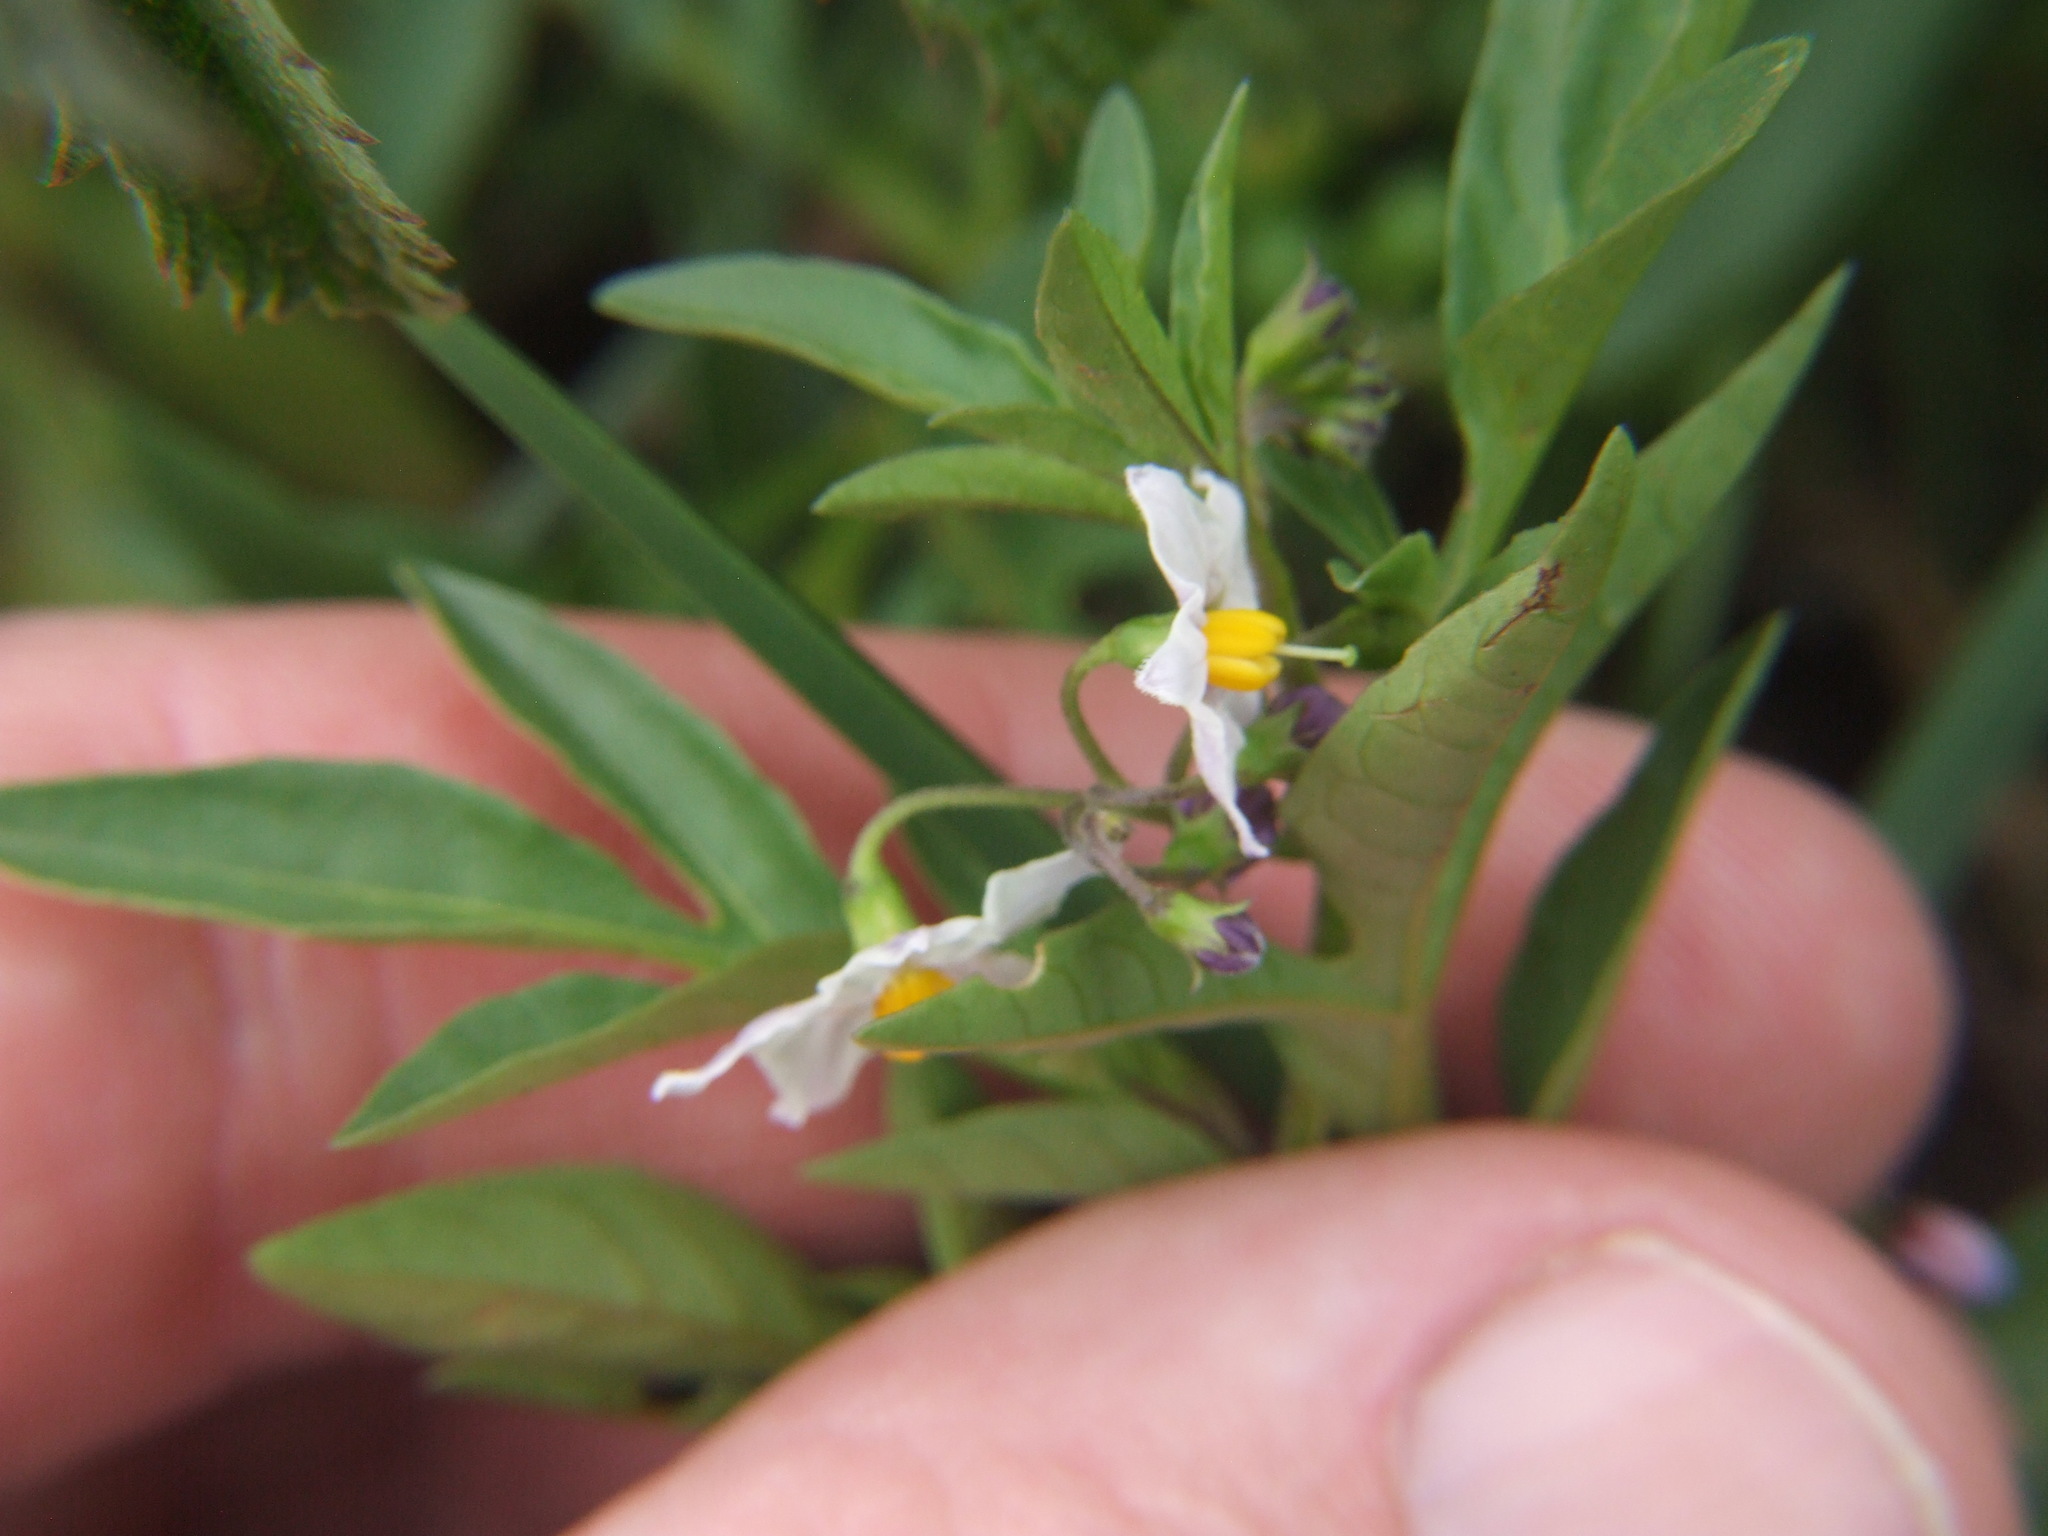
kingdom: Plantae
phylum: Tracheophyta
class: Magnoliopsida
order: Solanales
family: Solanaceae
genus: Solanum
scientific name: Solanum radicans
